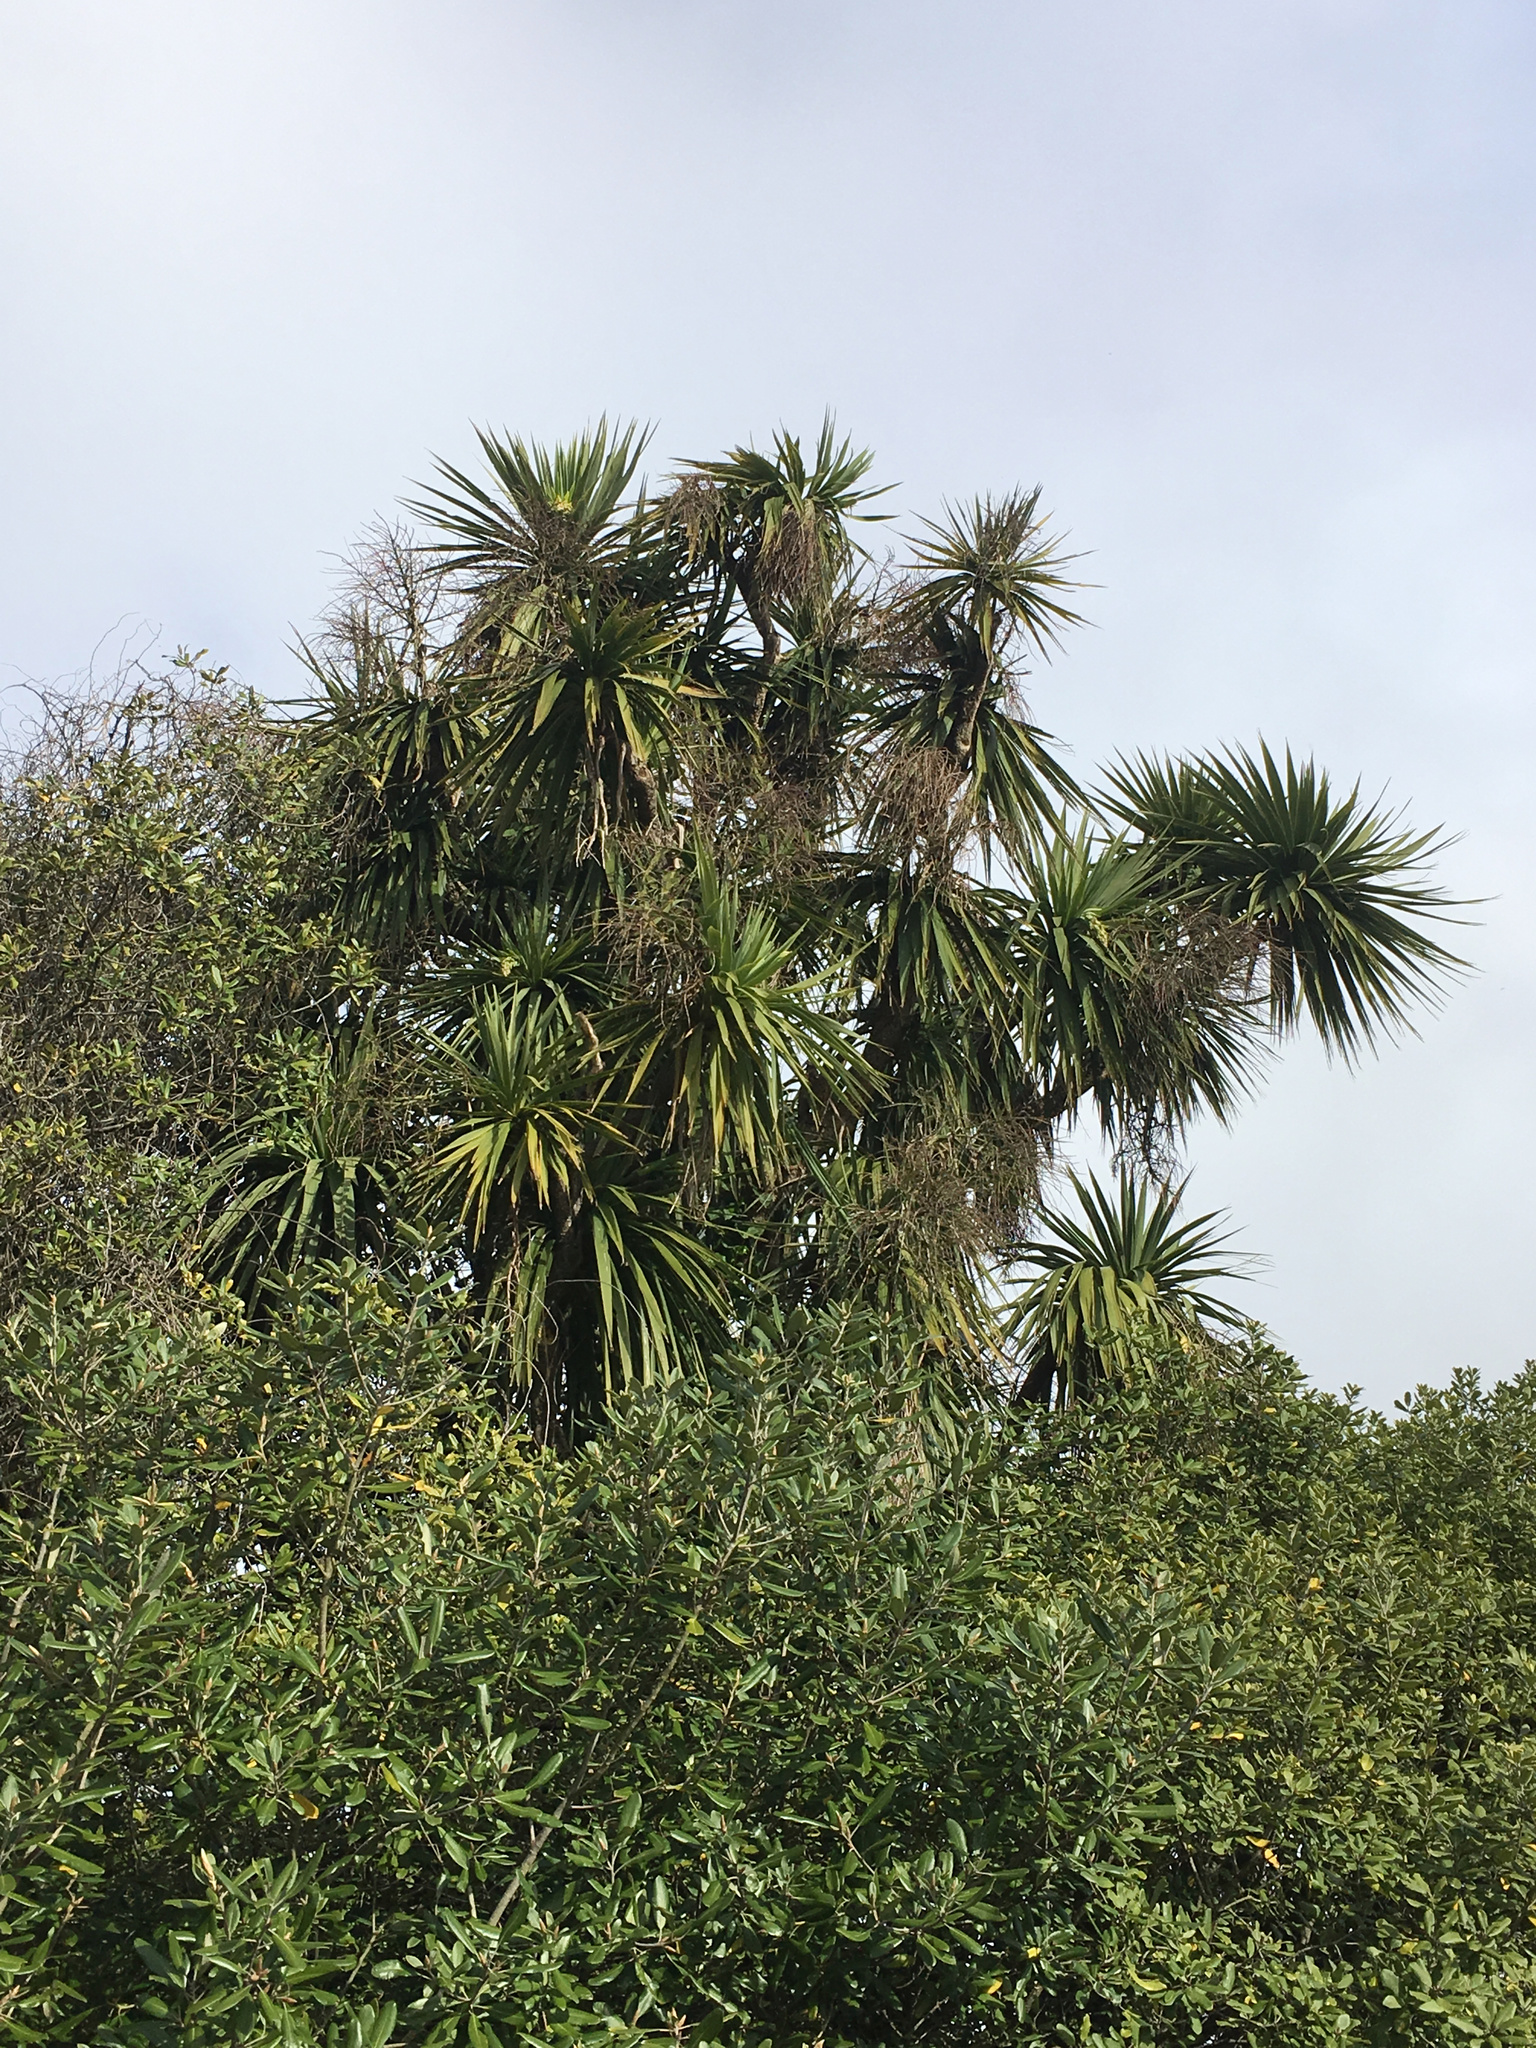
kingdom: Plantae
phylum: Tracheophyta
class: Liliopsida
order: Asparagales
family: Asparagaceae
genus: Cordyline
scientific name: Cordyline australis
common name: Cabbage-palm
